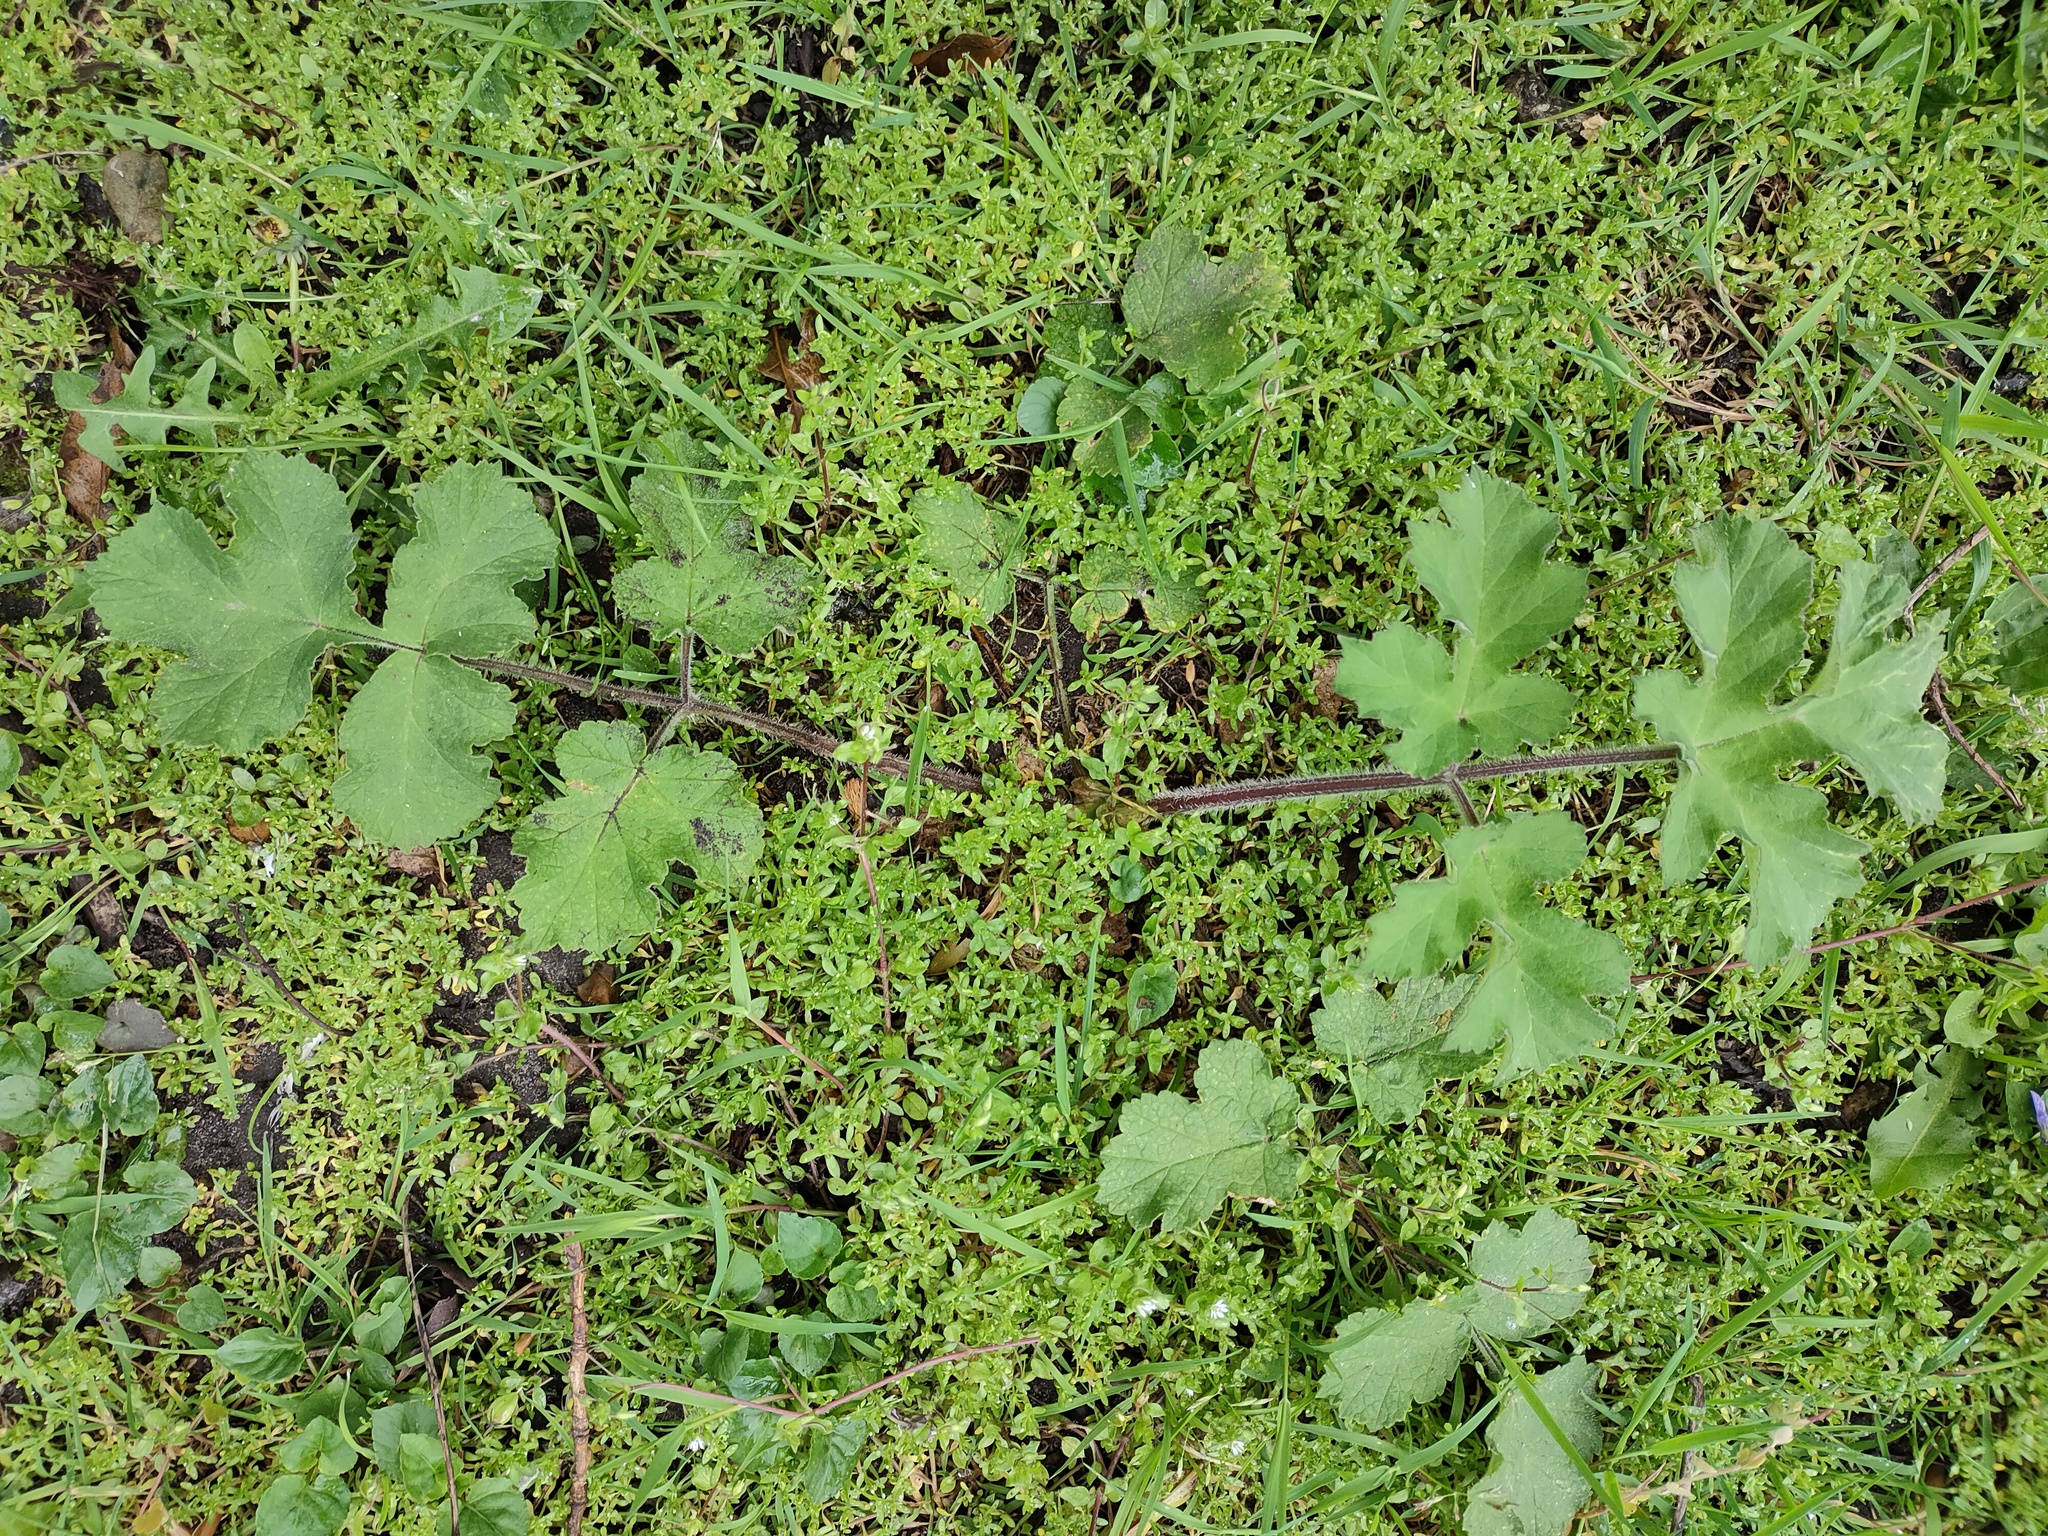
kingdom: Plantae
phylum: Tracheophyta
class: Magnoliopsida
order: Apiales
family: Apiaceae
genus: Heracleum
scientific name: Heracleum sphondylium
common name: Hogweed
